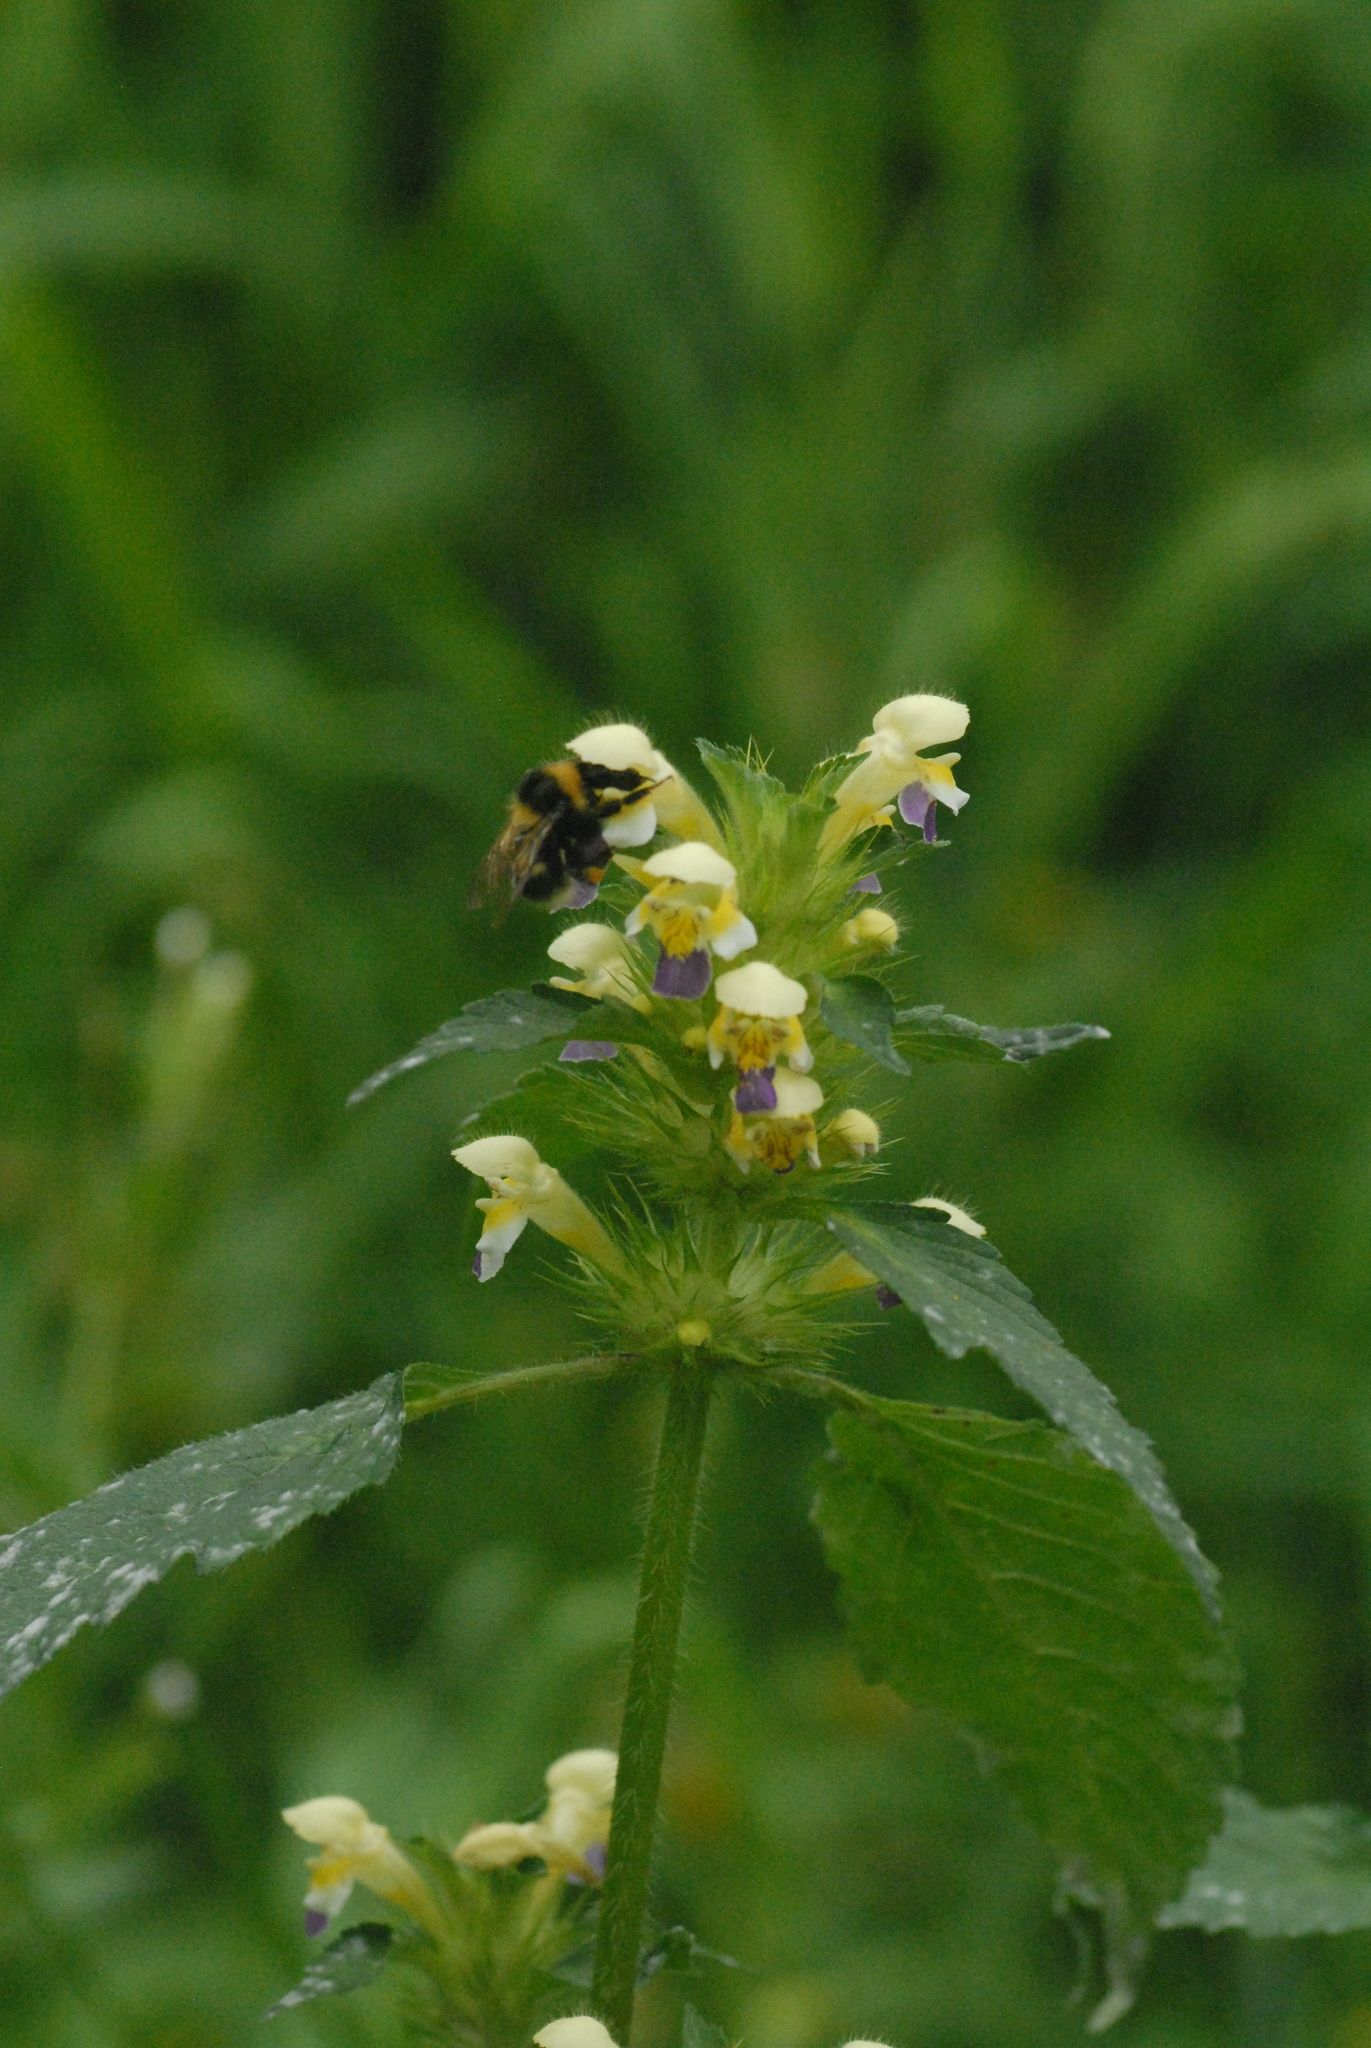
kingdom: Plantae
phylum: Tracheophyta
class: Magnoliopsida
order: Lamiales
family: Lamiaceae
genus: Galeopsis
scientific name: Galeopsis speciosa
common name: Large-flowered hemp-nettle
